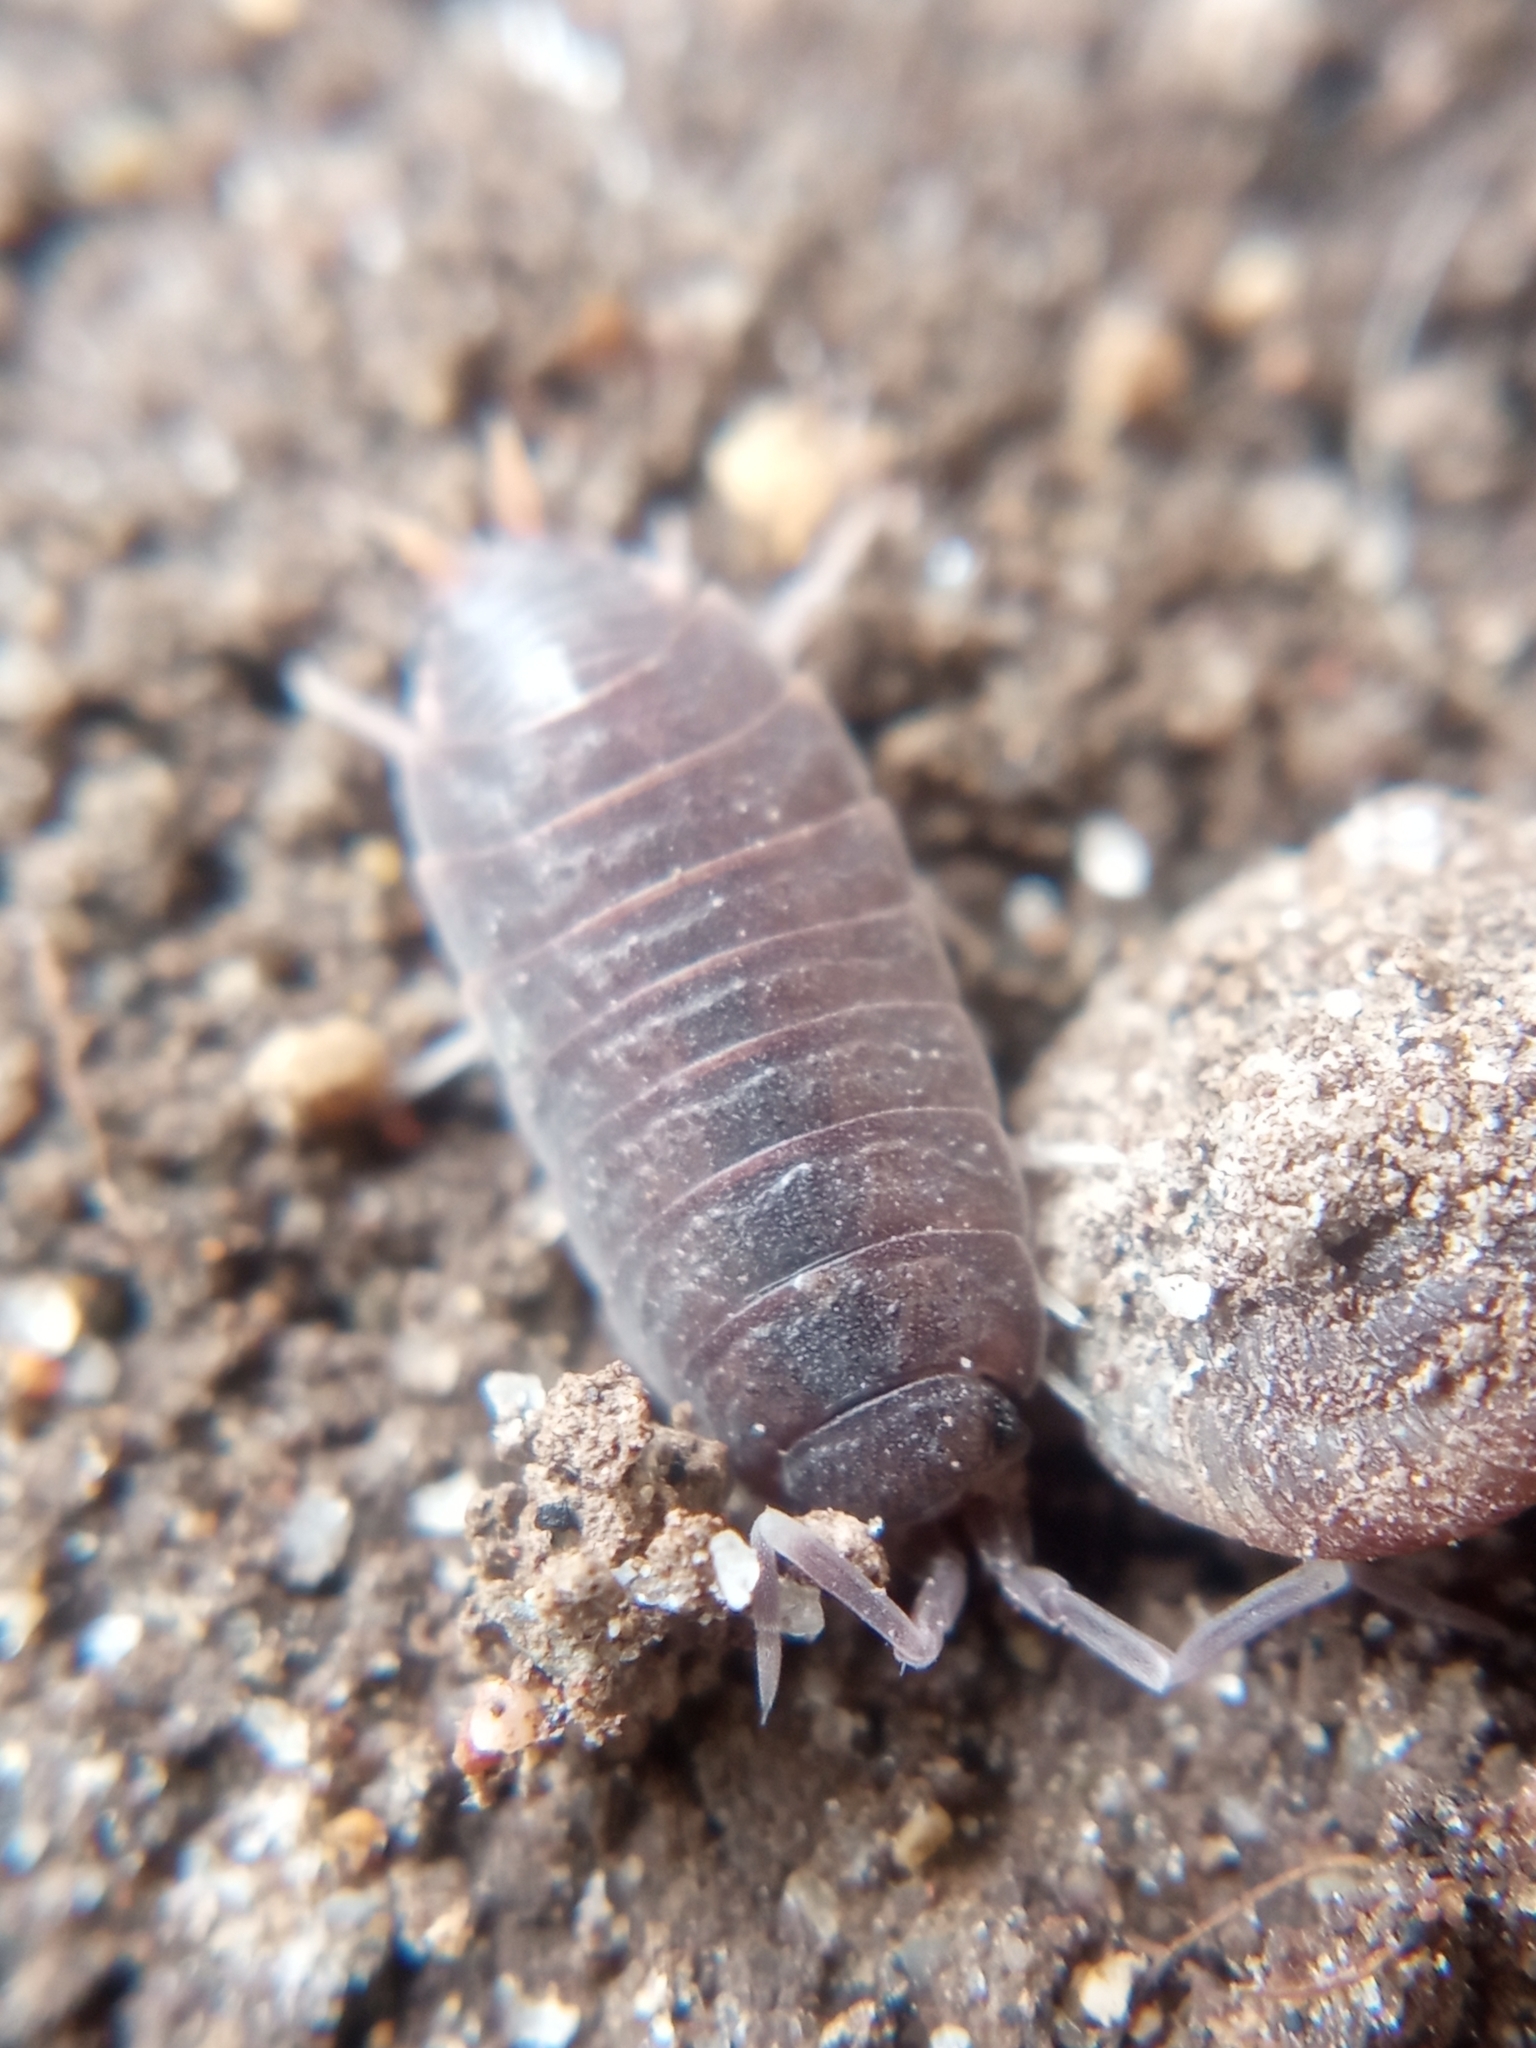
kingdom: Animalia
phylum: Arthropoda
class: Malacostraca
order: Isopoda
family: Porcellionidae
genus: Porcellionides
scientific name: Porcellionides pruinosus
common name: Plum woodlouse
